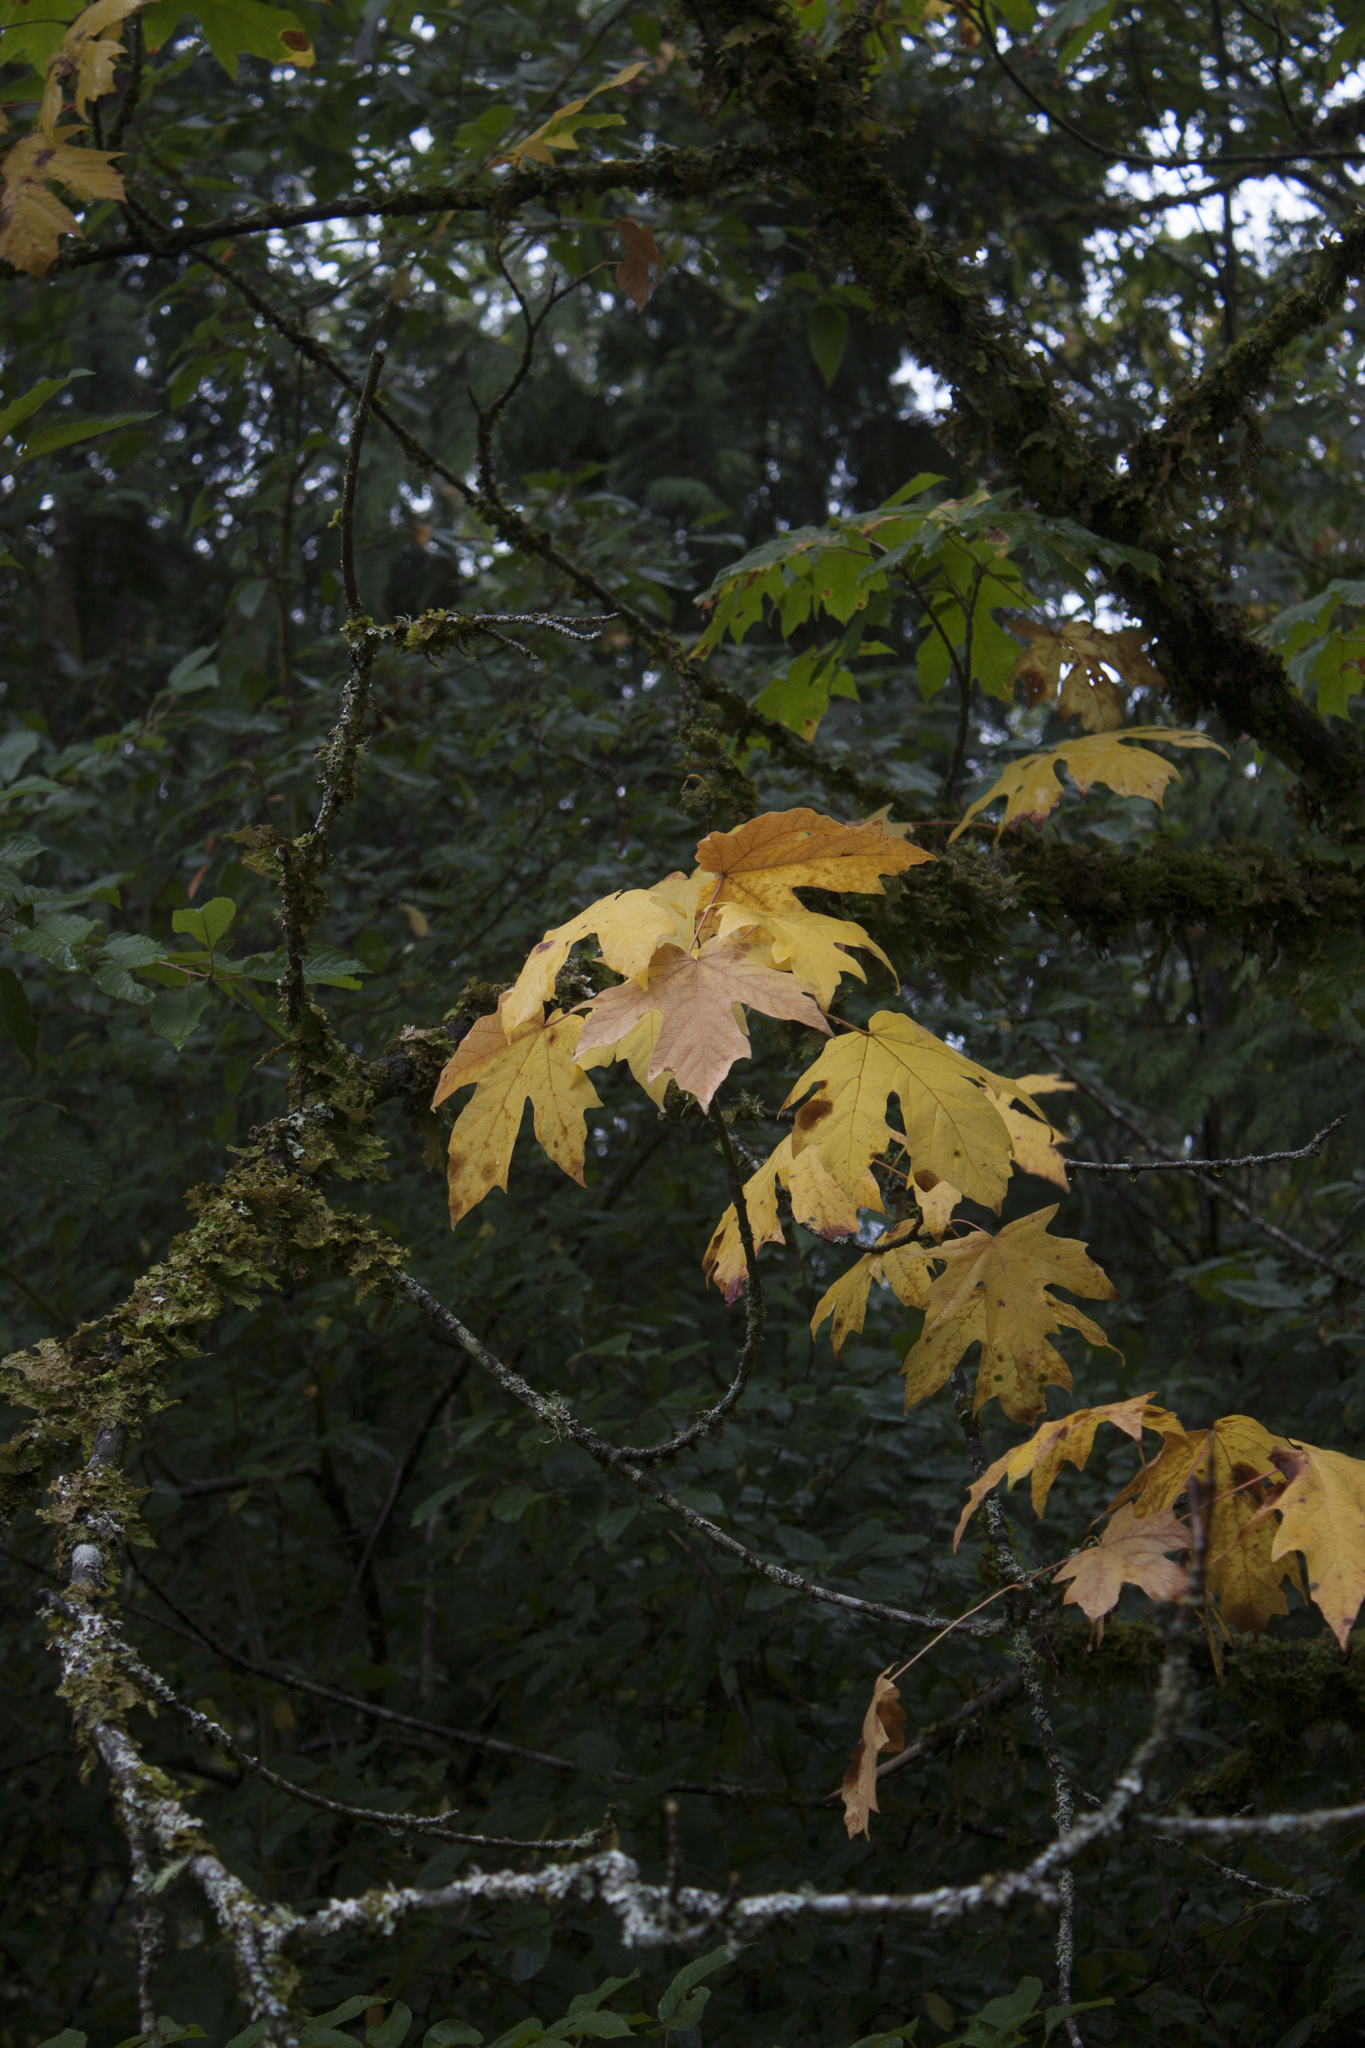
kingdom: Plantae
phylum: Tracheophyta
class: Magnoliopsida
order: Sapindales
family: Sapindaceae
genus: Acer
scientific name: Acer macrophyllum
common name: Oregon maple
